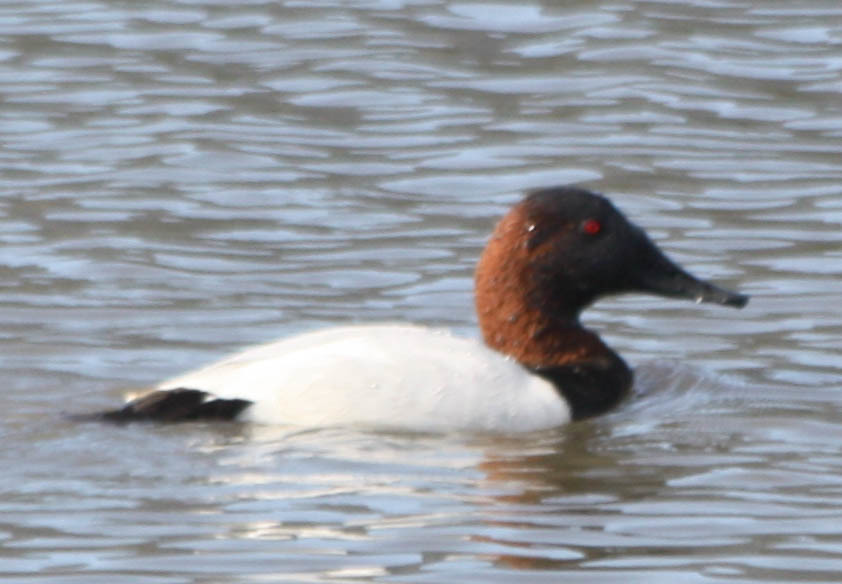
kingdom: Animalia
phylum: Chordata
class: Aves
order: Anseriformes
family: Anatidae
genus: Aythya
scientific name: Aythya valisineria
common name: Canvasback
